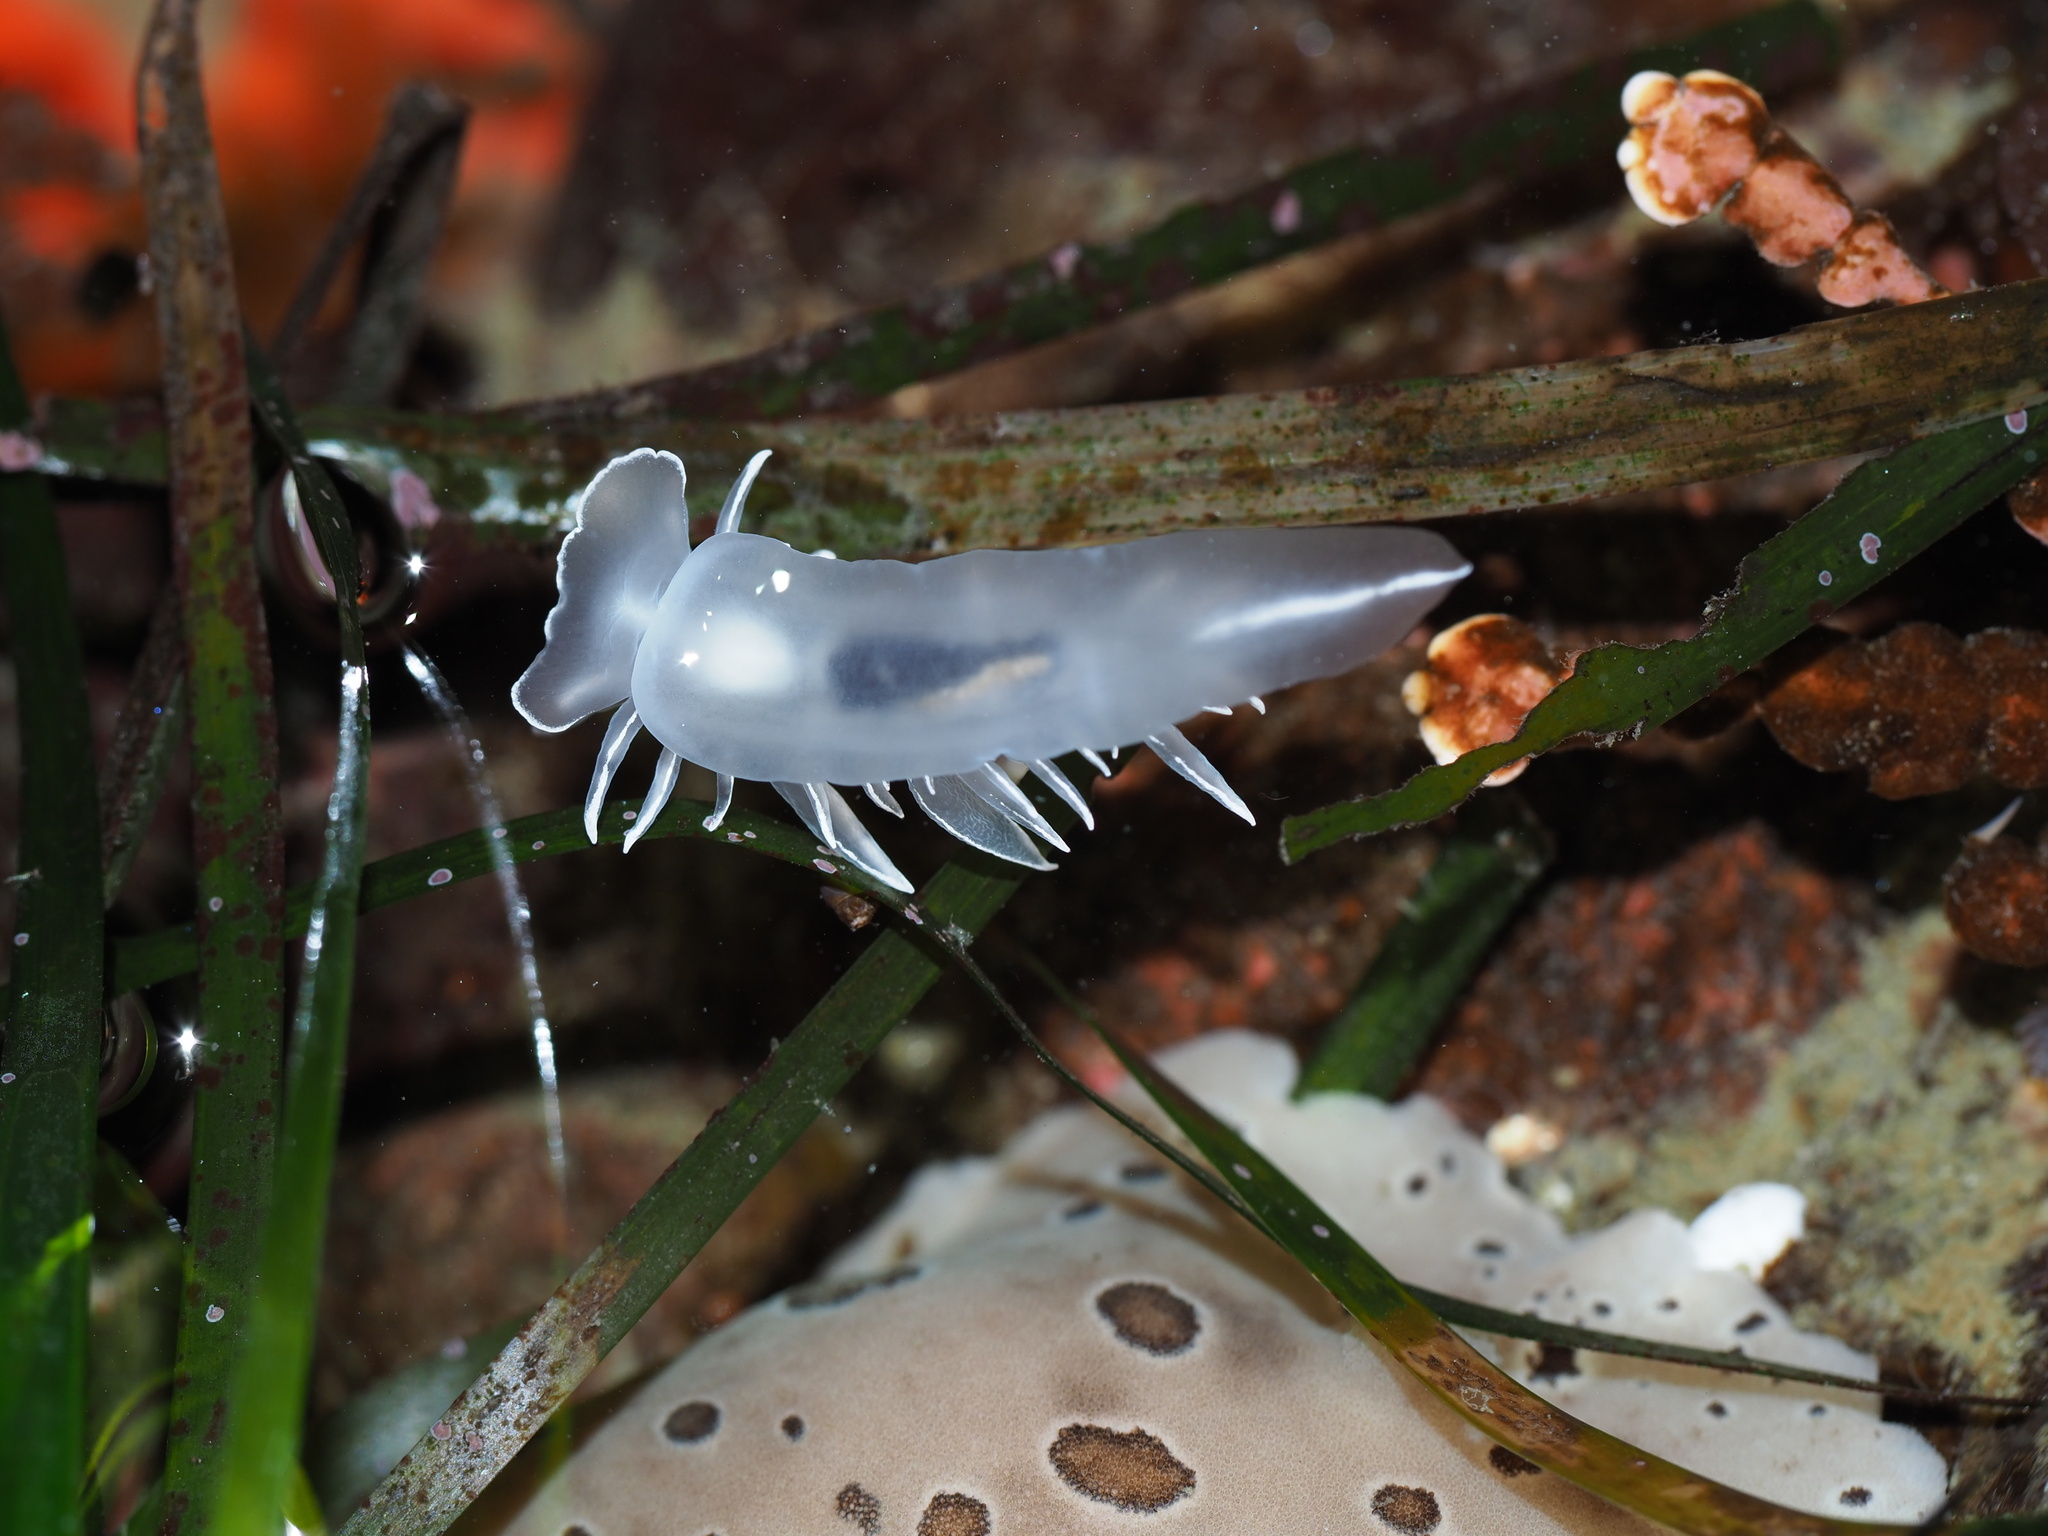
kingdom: Animalia
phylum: Mollusca
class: Gastropoda
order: Nudibranchia
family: Dironidae
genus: Dirona
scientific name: Dirona albolineata
